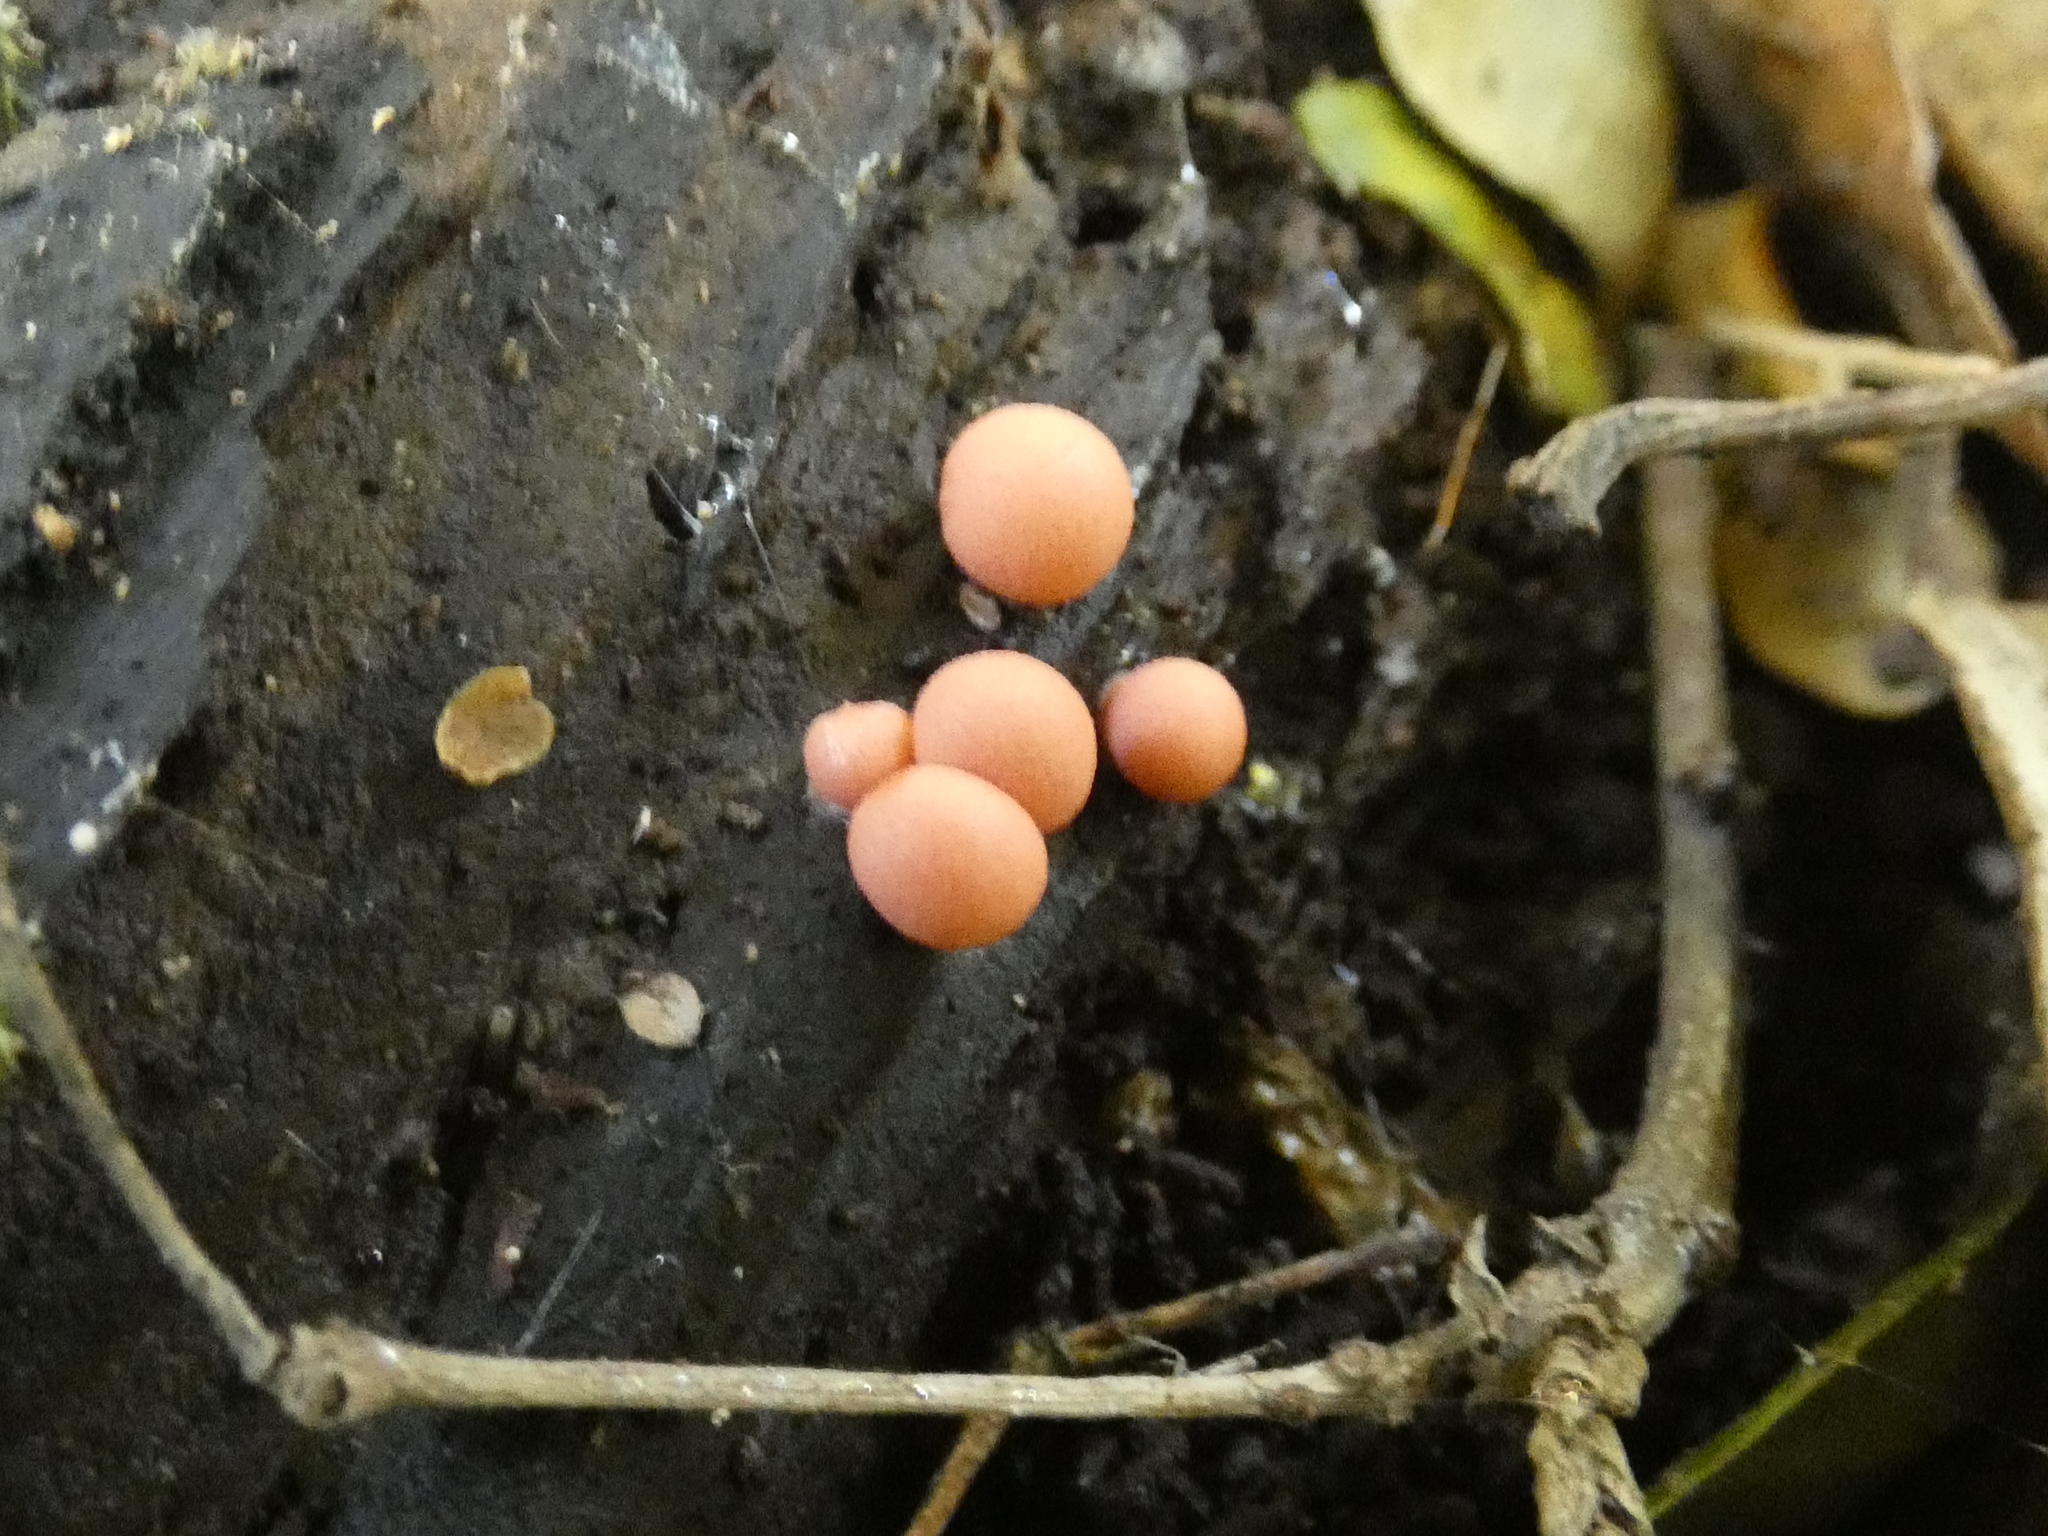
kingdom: Protozoa
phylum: Mycetozoa
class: Myxomycetes
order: Cribrariales
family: Tubiferaceae
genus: Lycogala
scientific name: Lycogala epidendrum
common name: Wolf's milk
